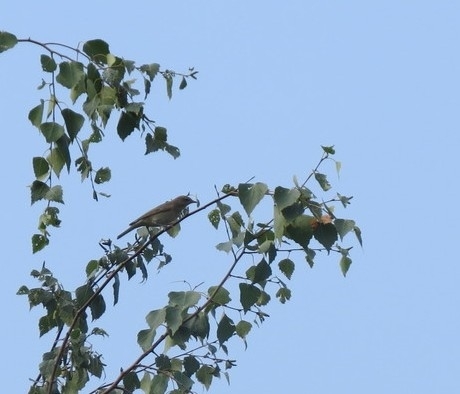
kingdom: Animalia
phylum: Chordata
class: Aves
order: Passeriformes
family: Sylviidae
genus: Sylvia
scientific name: Sylvia borin
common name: Garden warbler
